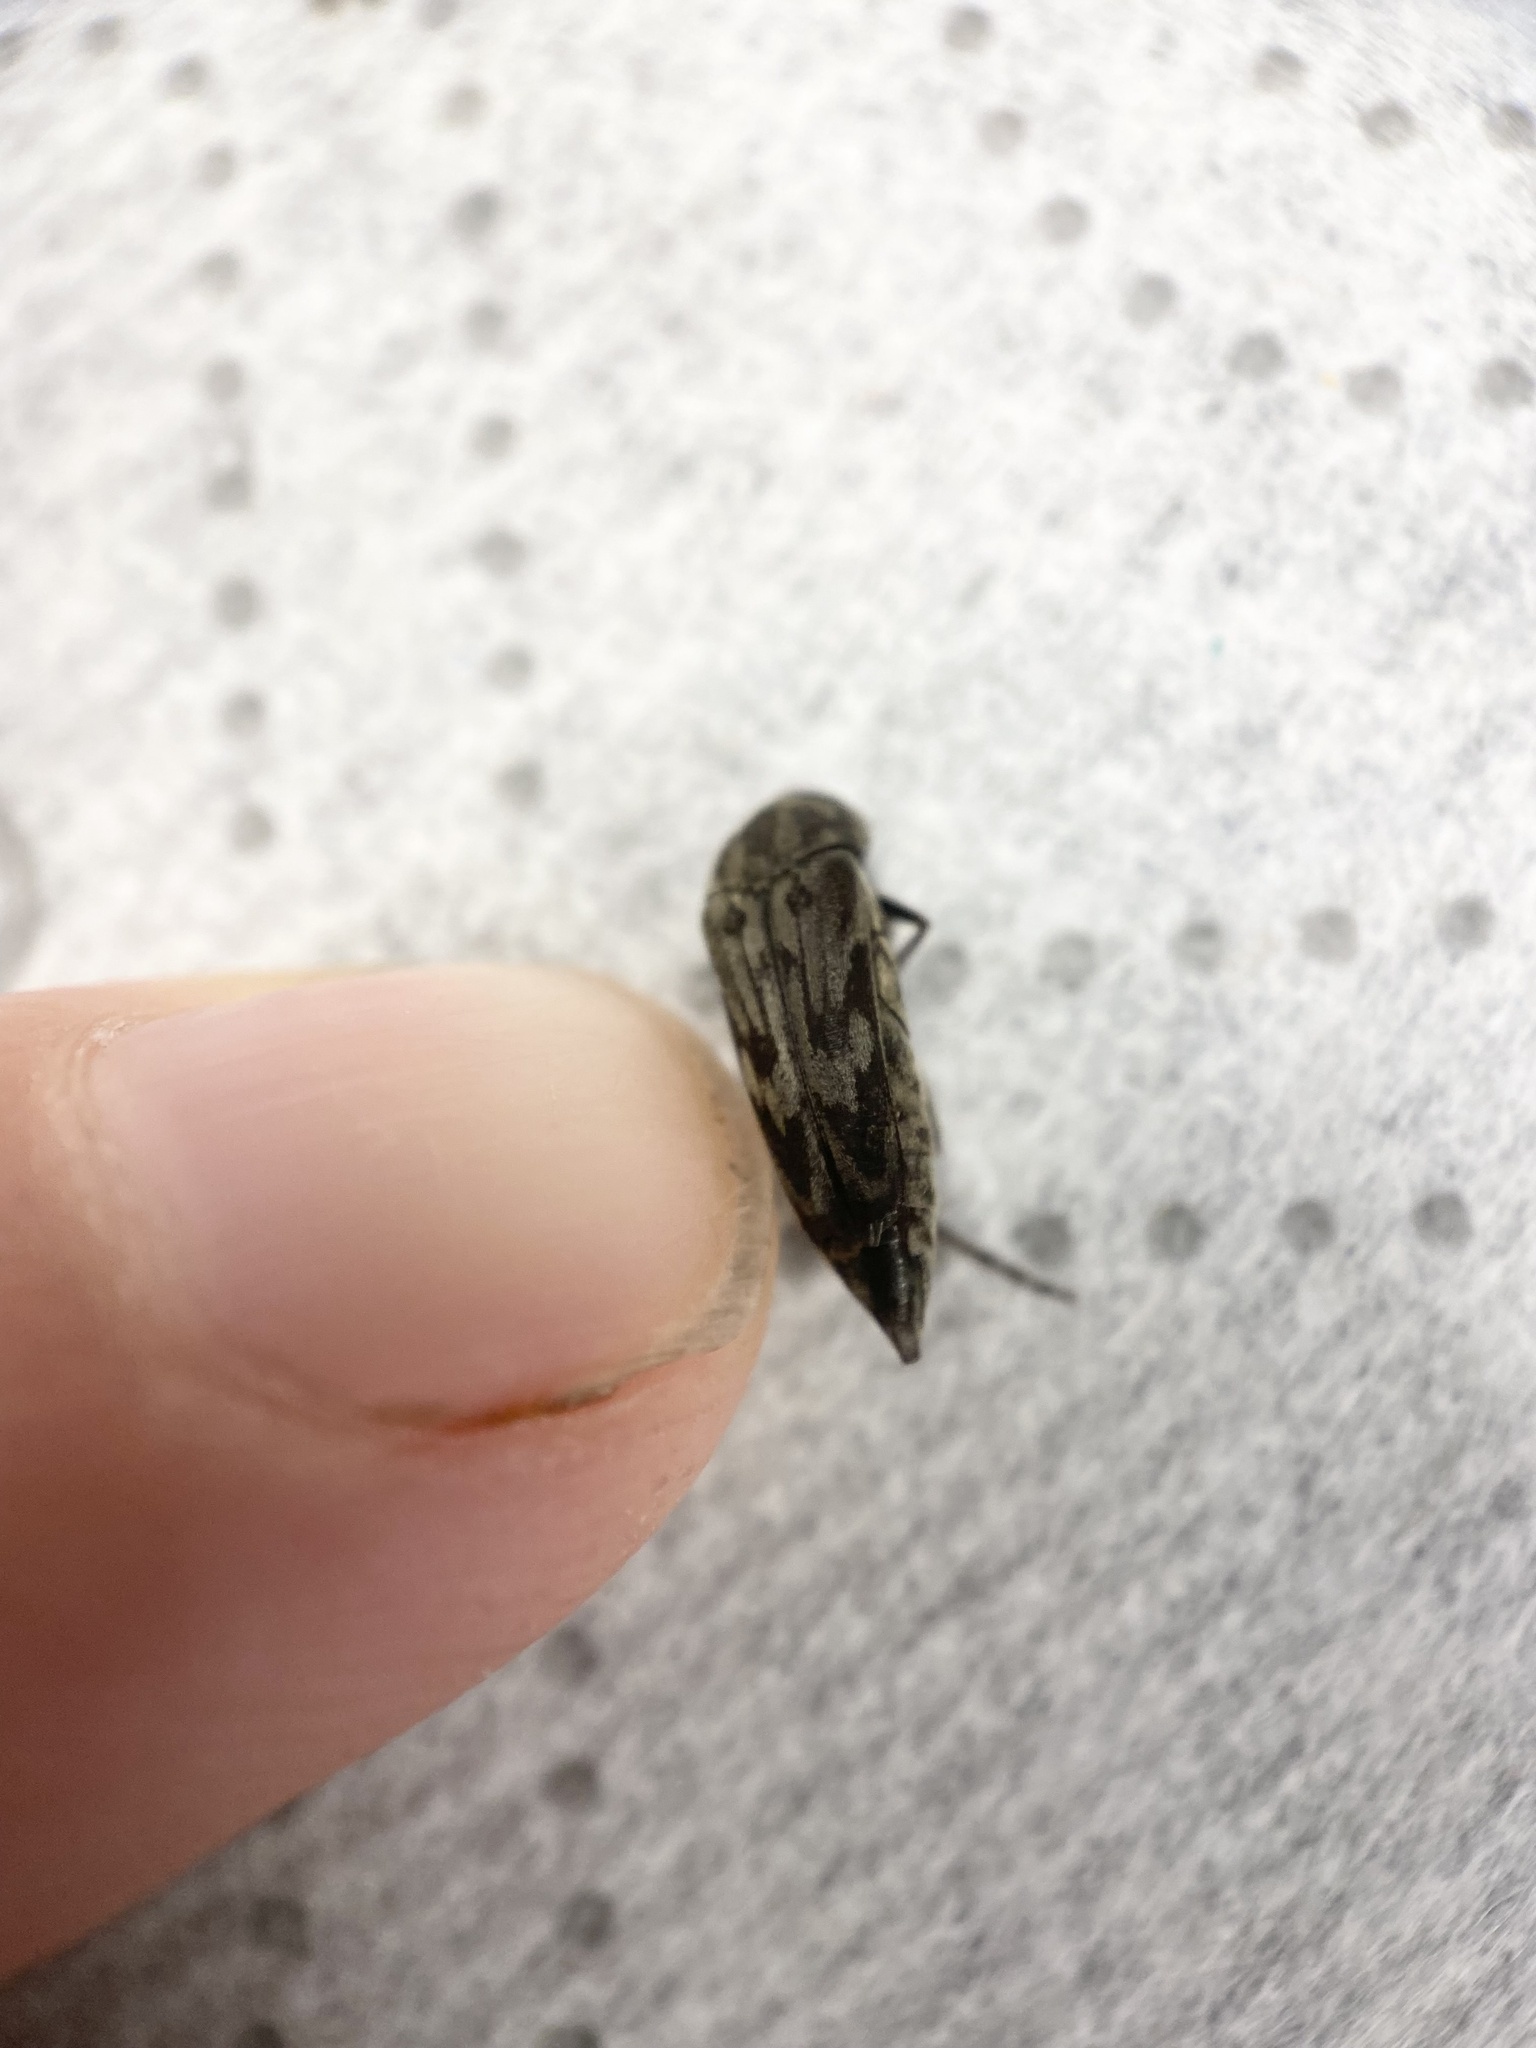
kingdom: Animalia
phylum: Arthropoda
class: Insecta
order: Coleoptera
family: Mordellidae
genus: Yakuhananomia
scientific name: Yakuhananomia bidentata
